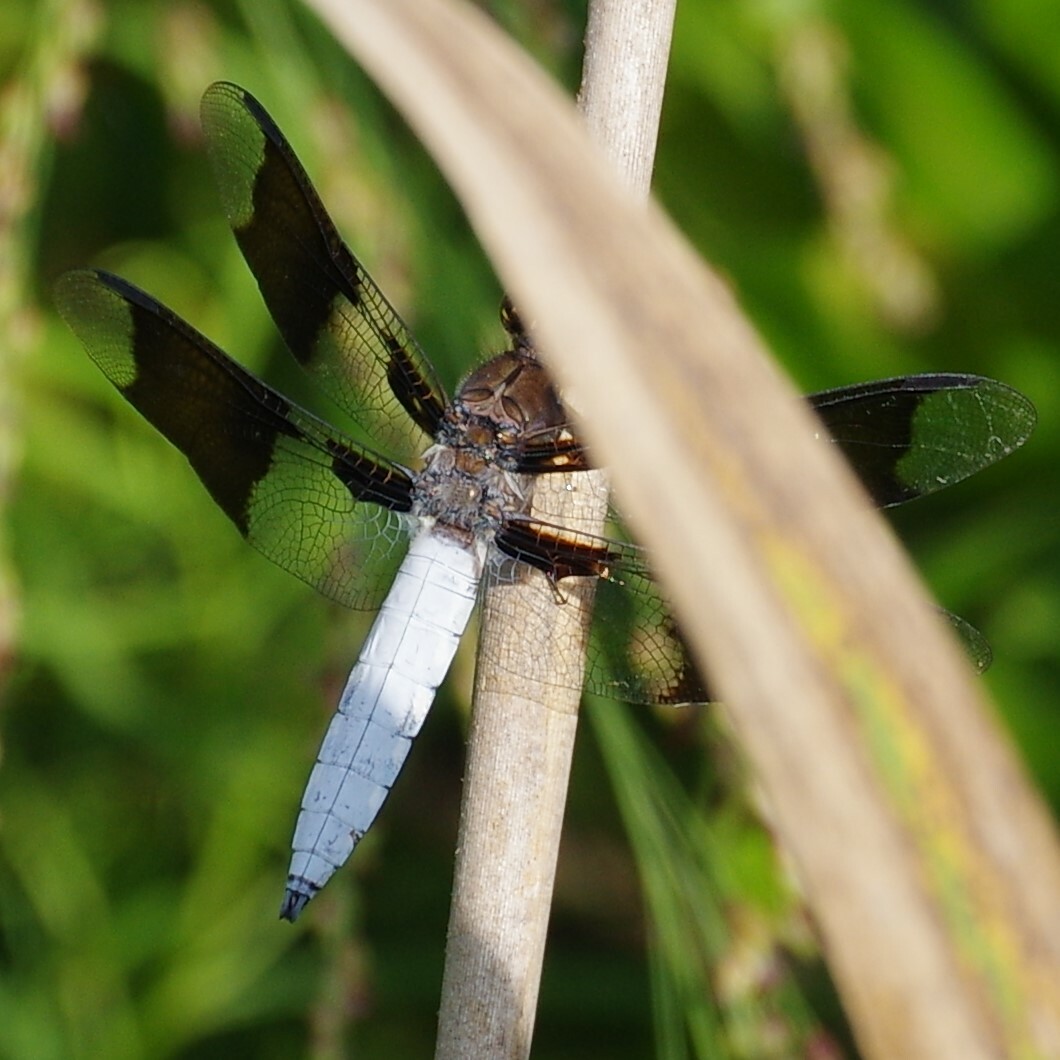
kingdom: Animalia
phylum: Arthropoda
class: Insecta
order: Odonata
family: Libellulidae
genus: Plathemis
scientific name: Plathemis lydia
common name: Common whitetail
